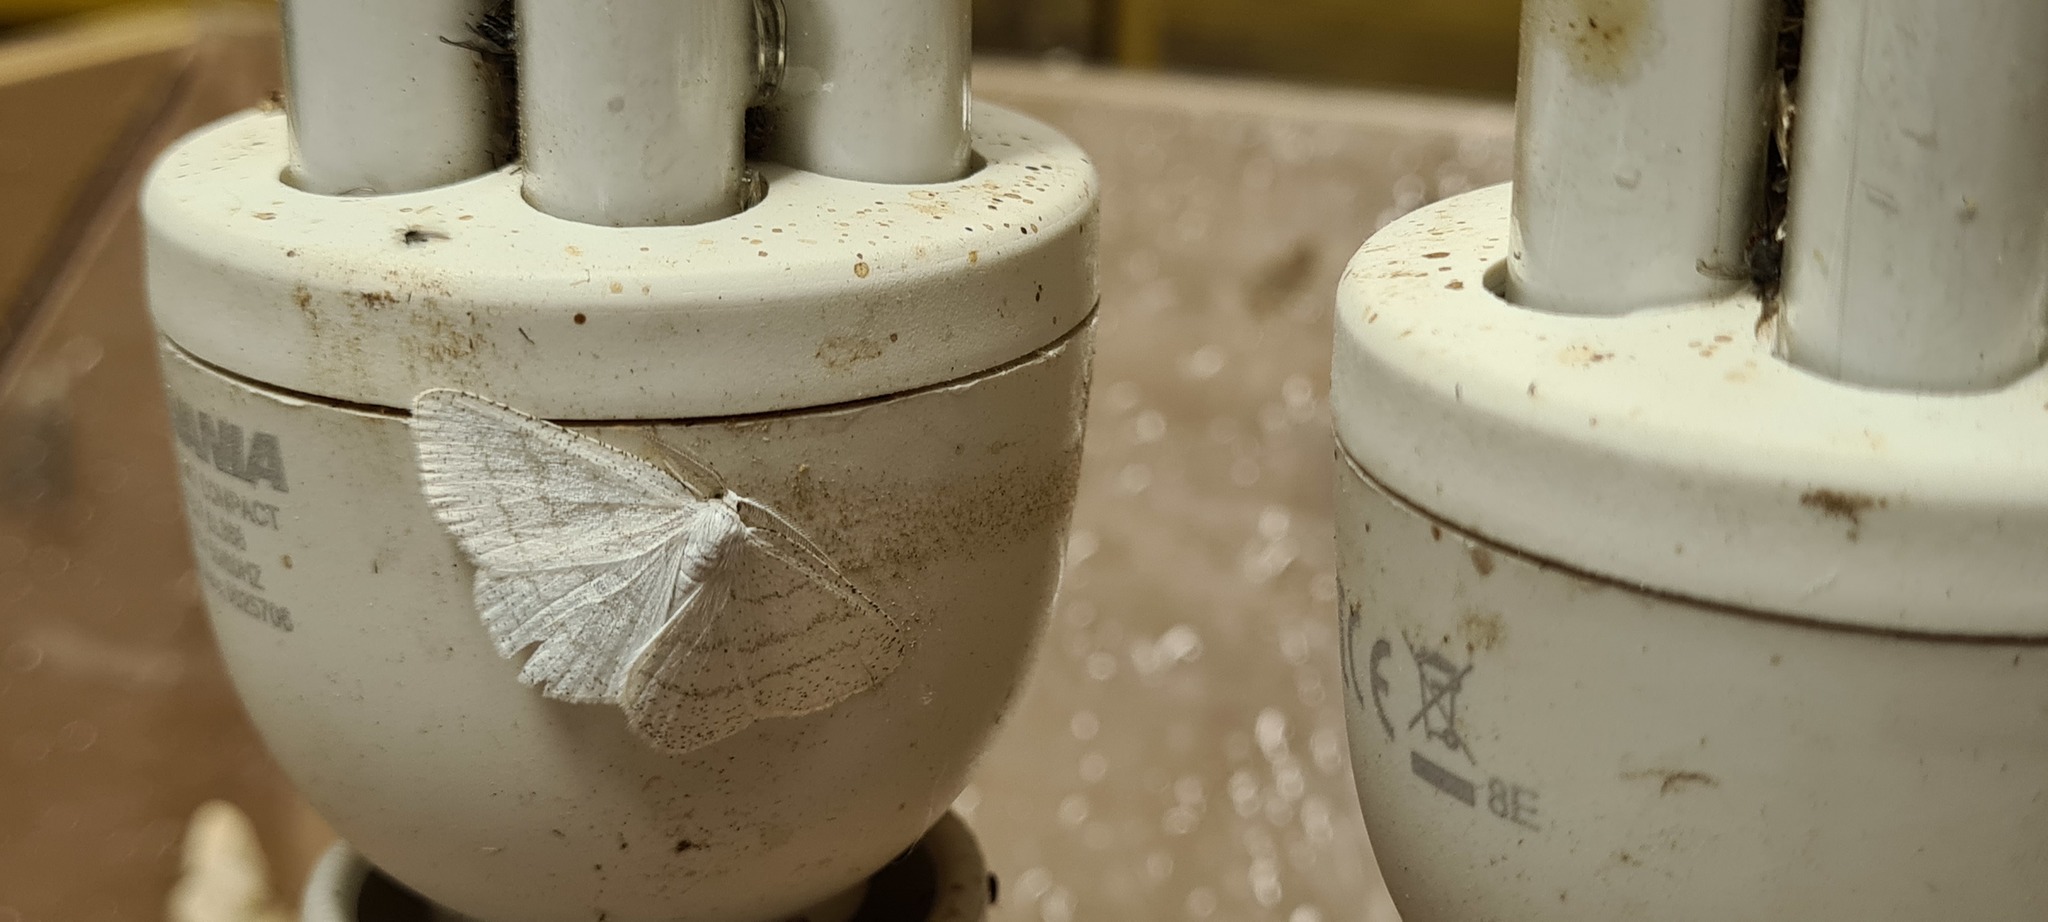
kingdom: Animalia
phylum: Arthropoda
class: Insecta
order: Lepidoptera
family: Geometridae
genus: Cabera
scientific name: Cabera pusaria
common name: Common white wave
